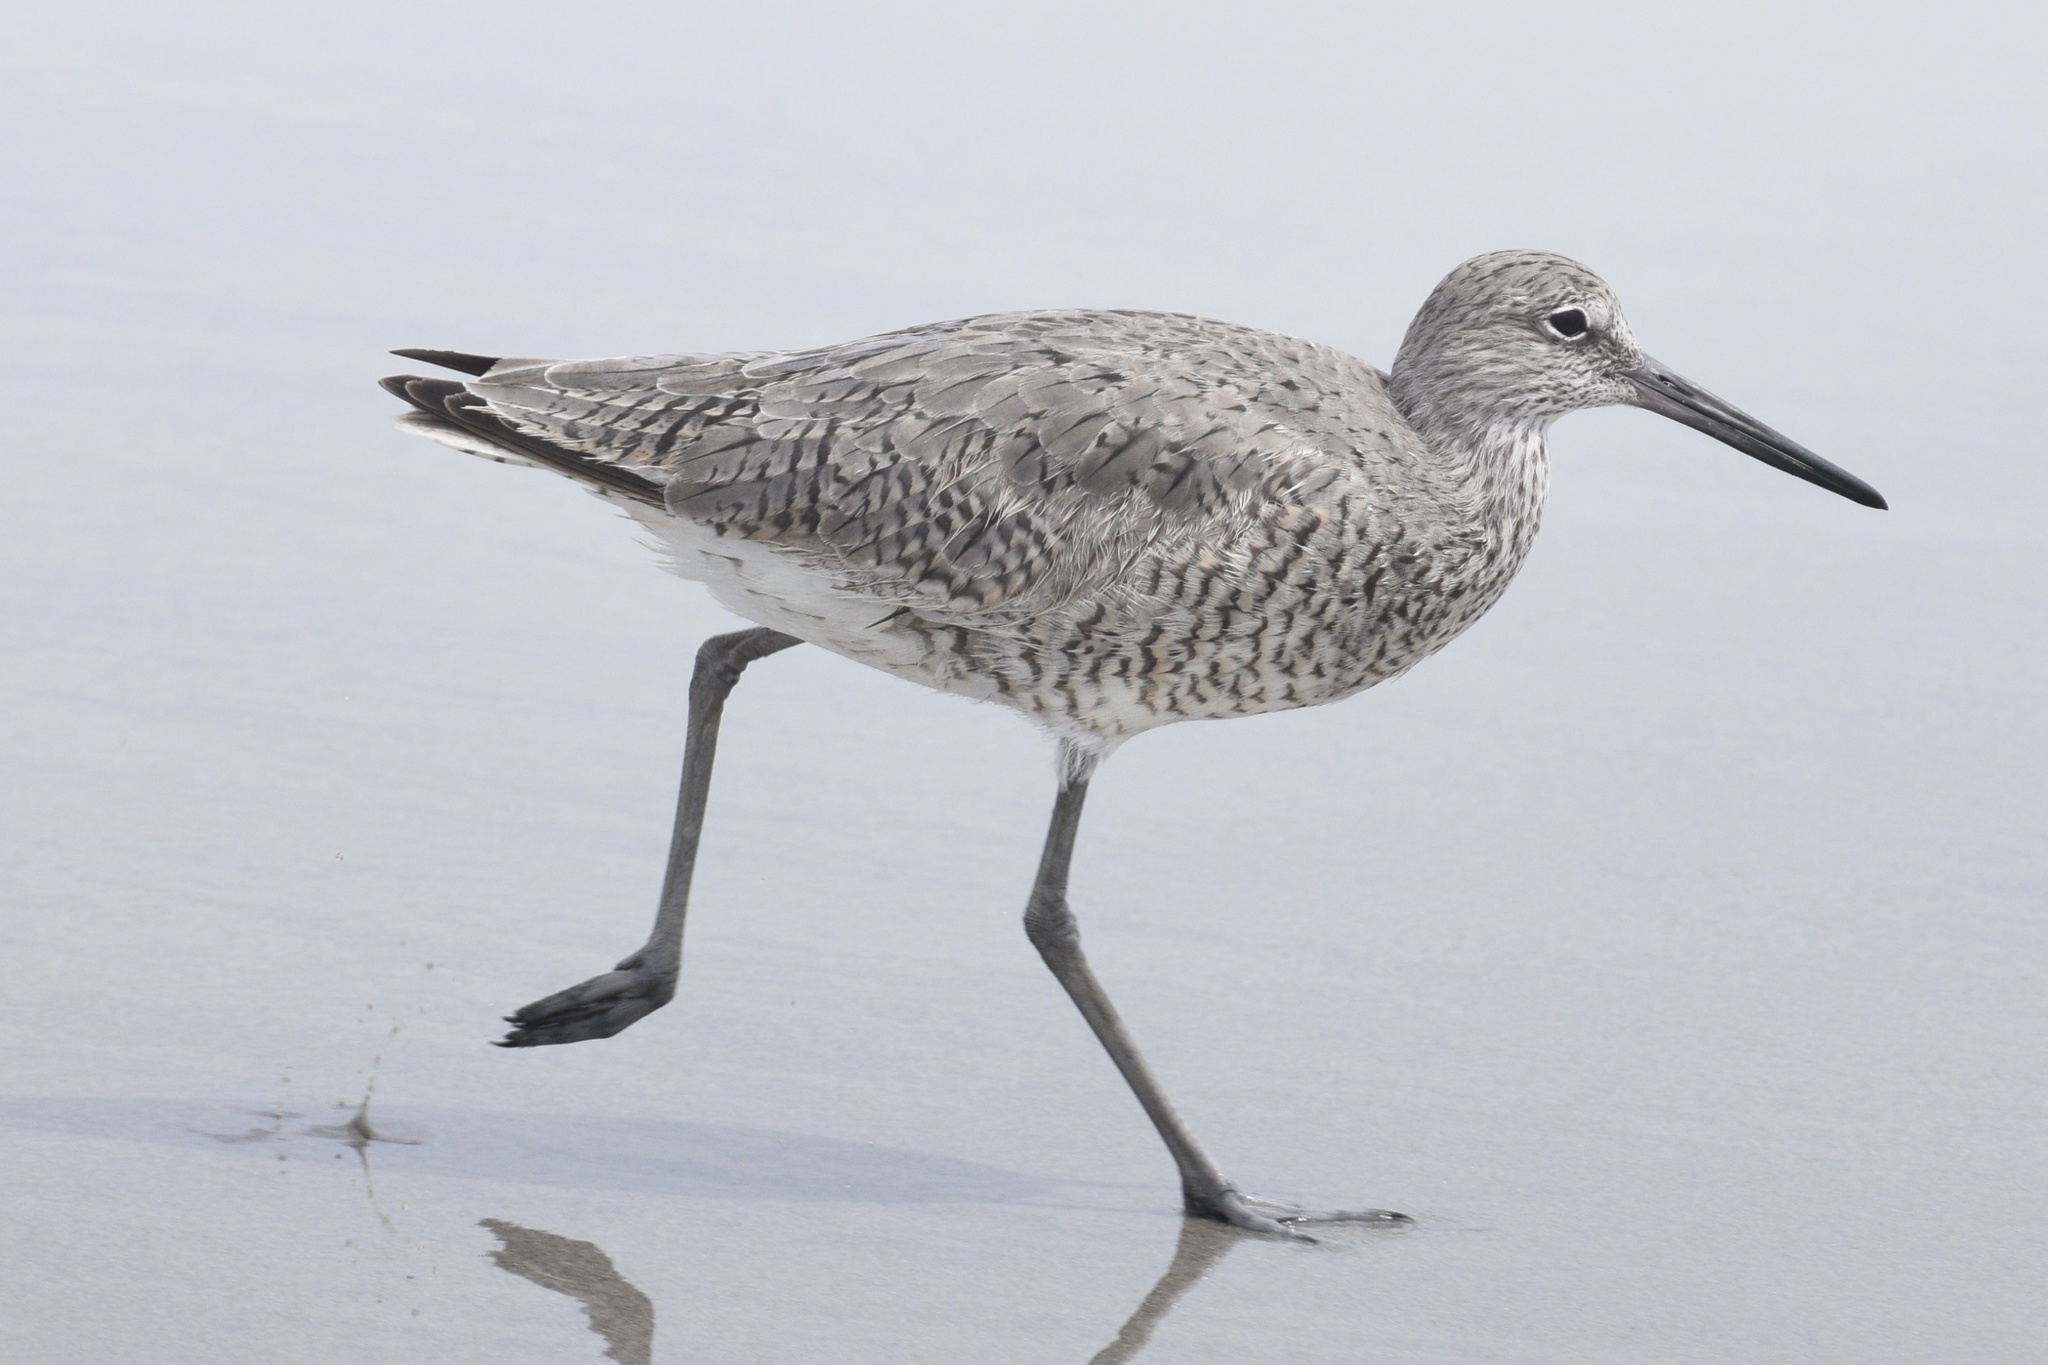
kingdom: Animalia
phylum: Chordata
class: Aves
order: Charadriiformes
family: Scolopacidae
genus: Tringa
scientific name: Tringa semipalmata
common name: Willet
